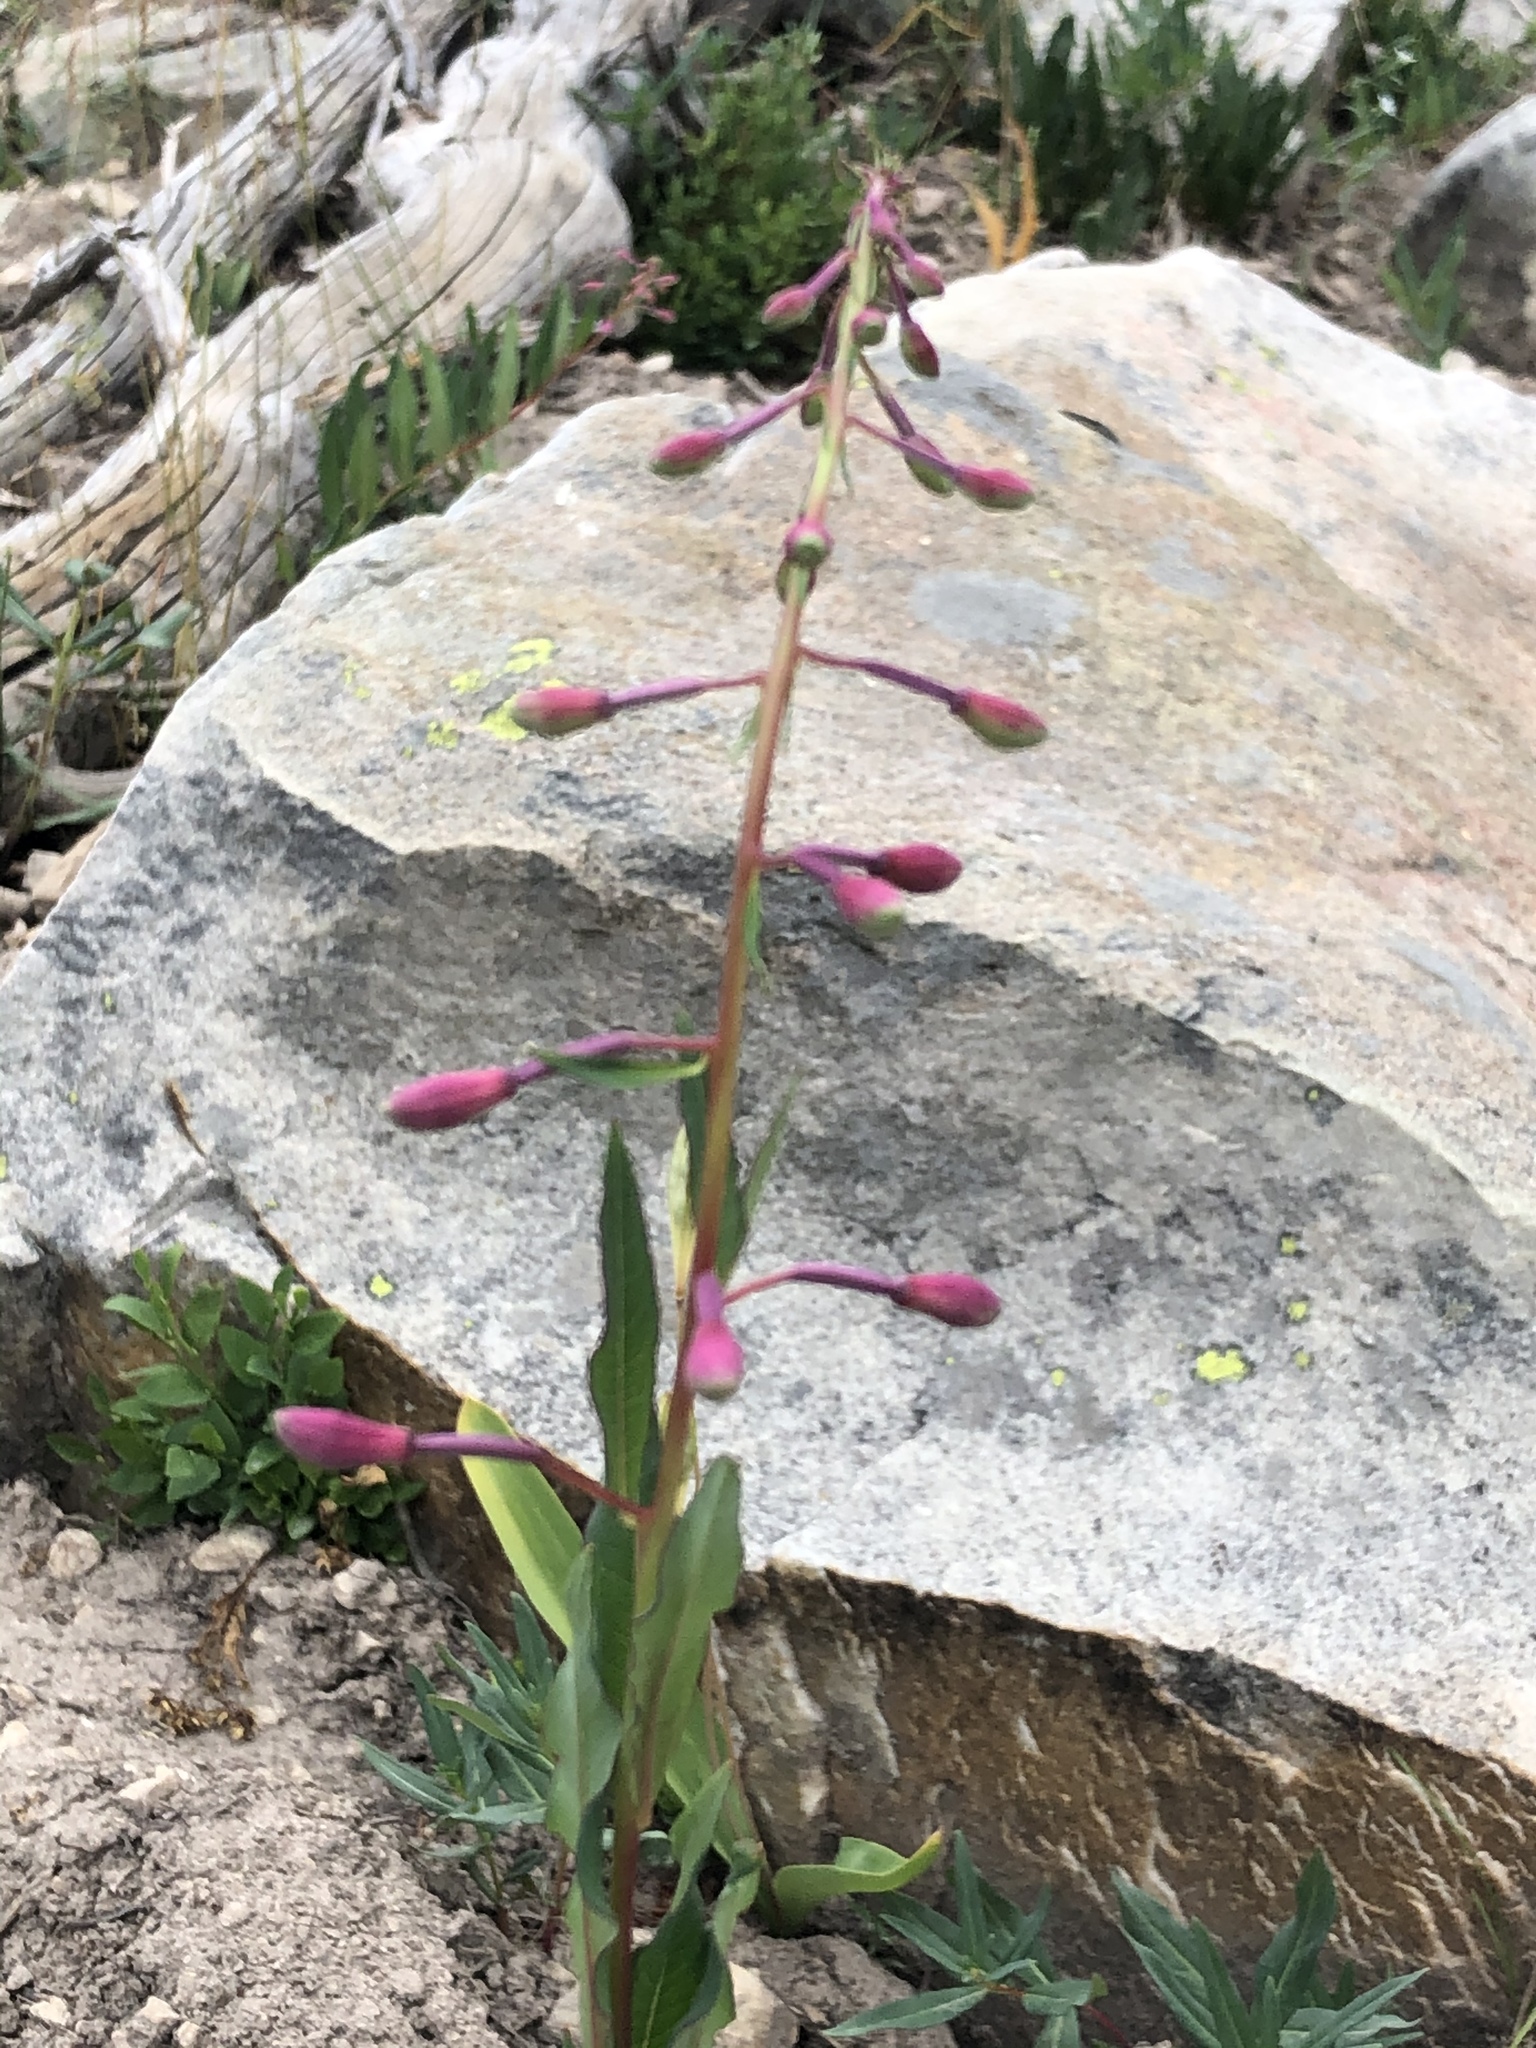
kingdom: Plantae
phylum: Tracheophyta
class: Magnoliopsida
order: Myrtales
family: Onagraceae
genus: Chamaenerion
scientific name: Chamaenerion angustifolium
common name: Fireweed
